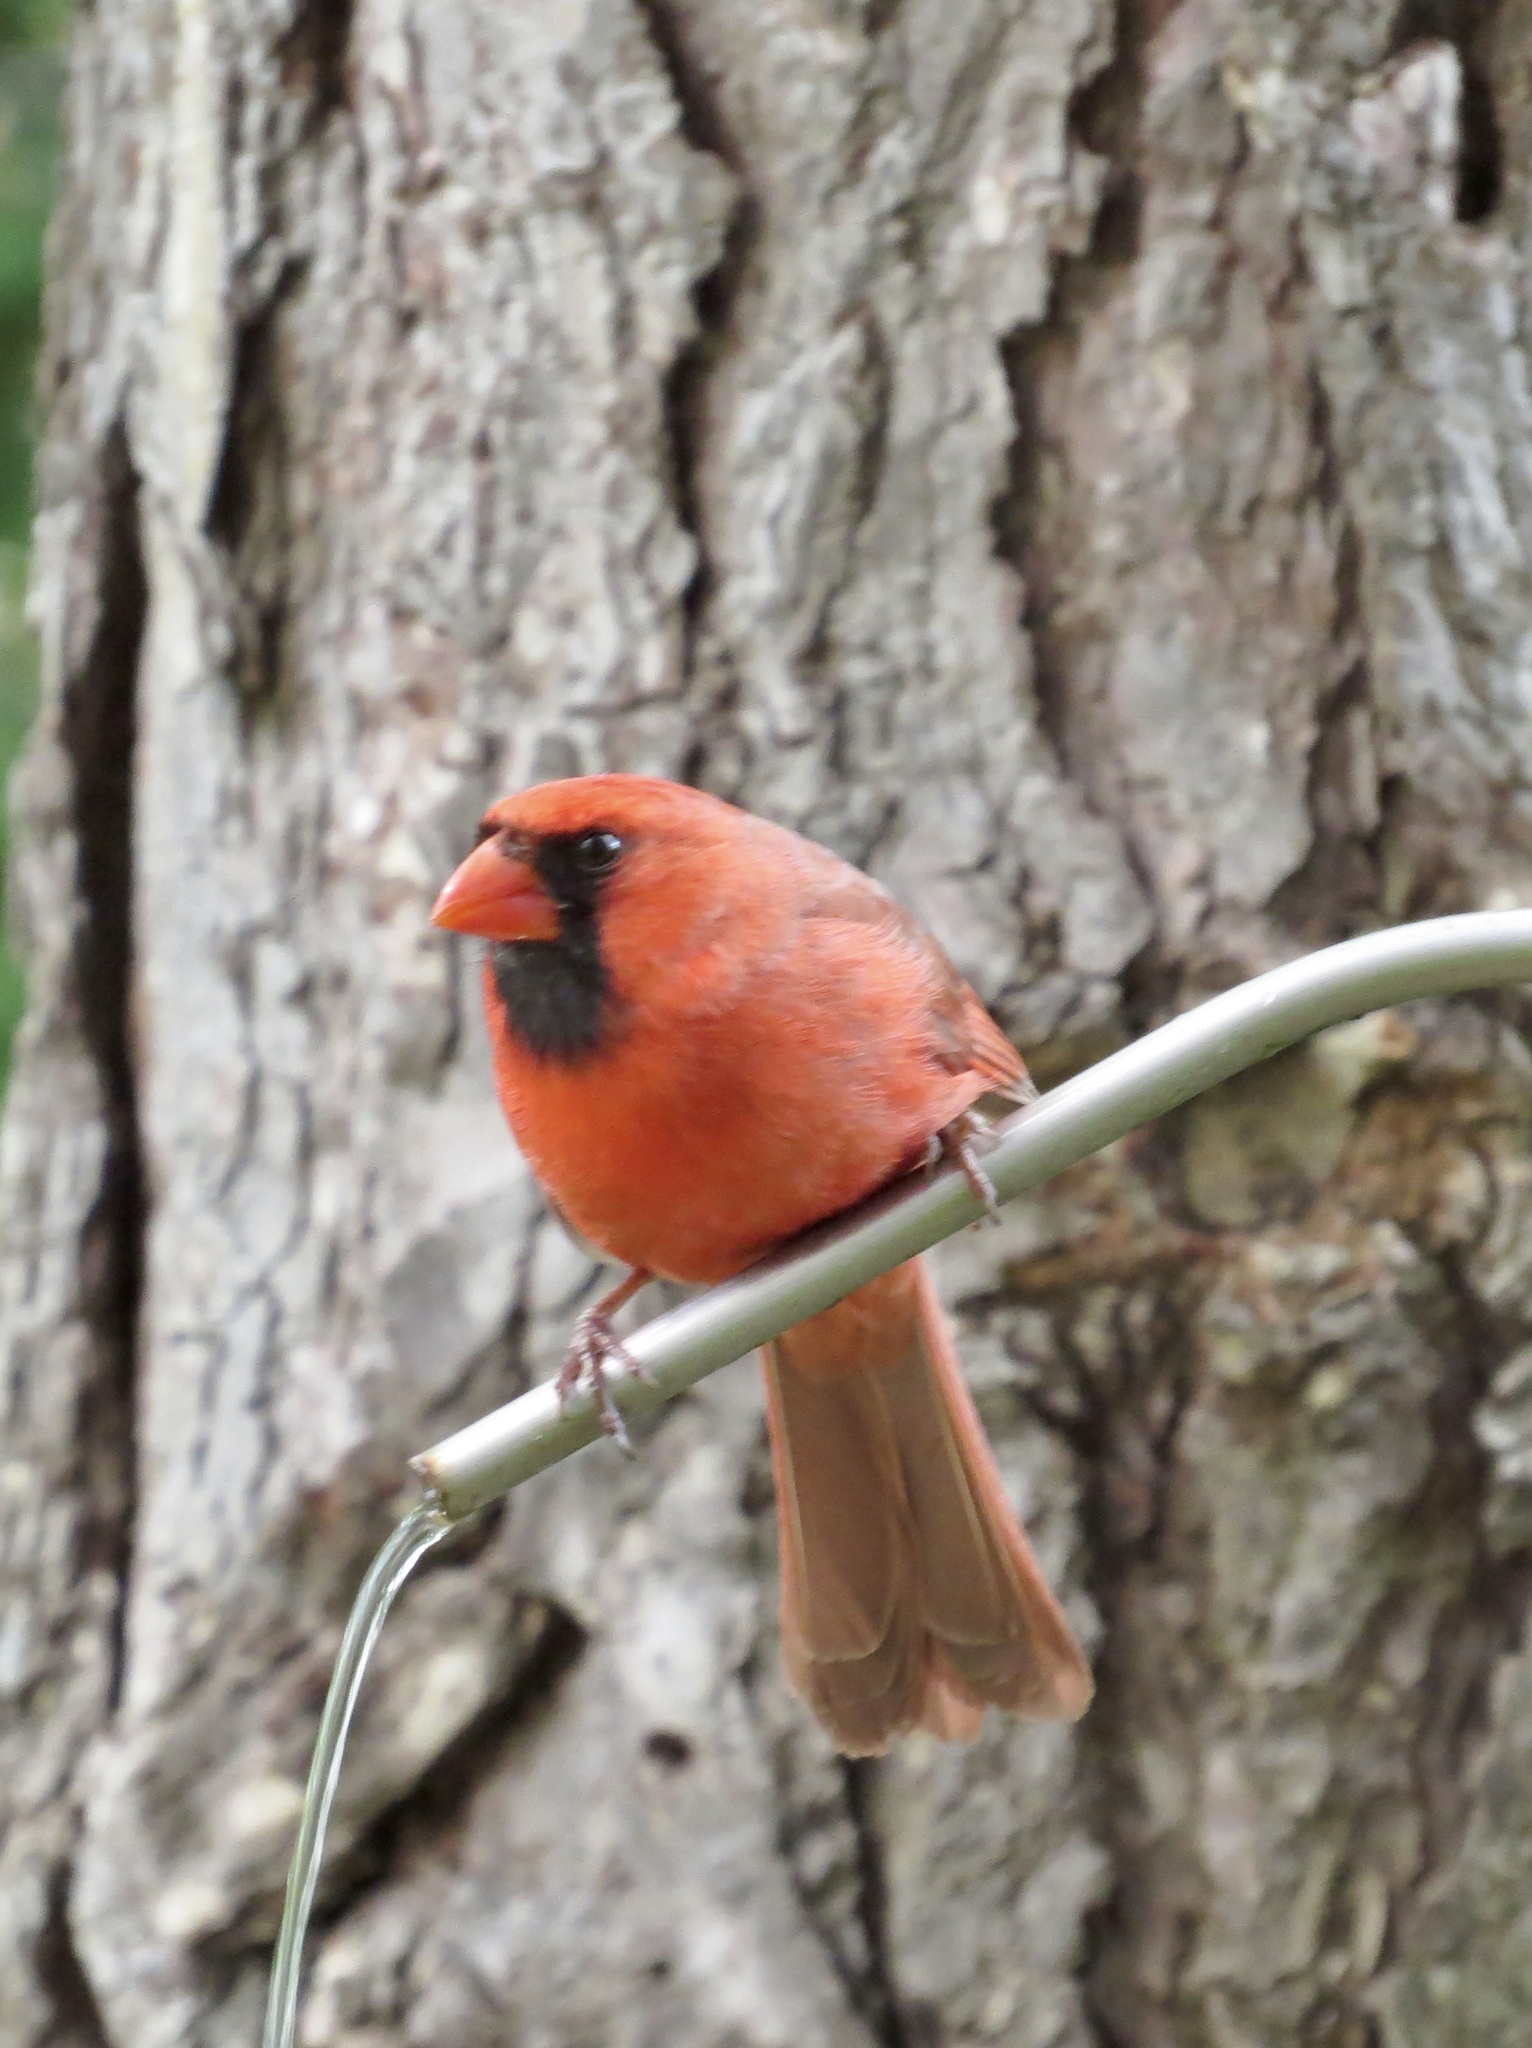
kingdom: Animalia
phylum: Chordata
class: Aves
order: Passeriformes
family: Cardinalidae
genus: Cardinalis
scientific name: Cardinalis cardinalis
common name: Northern cardinal
